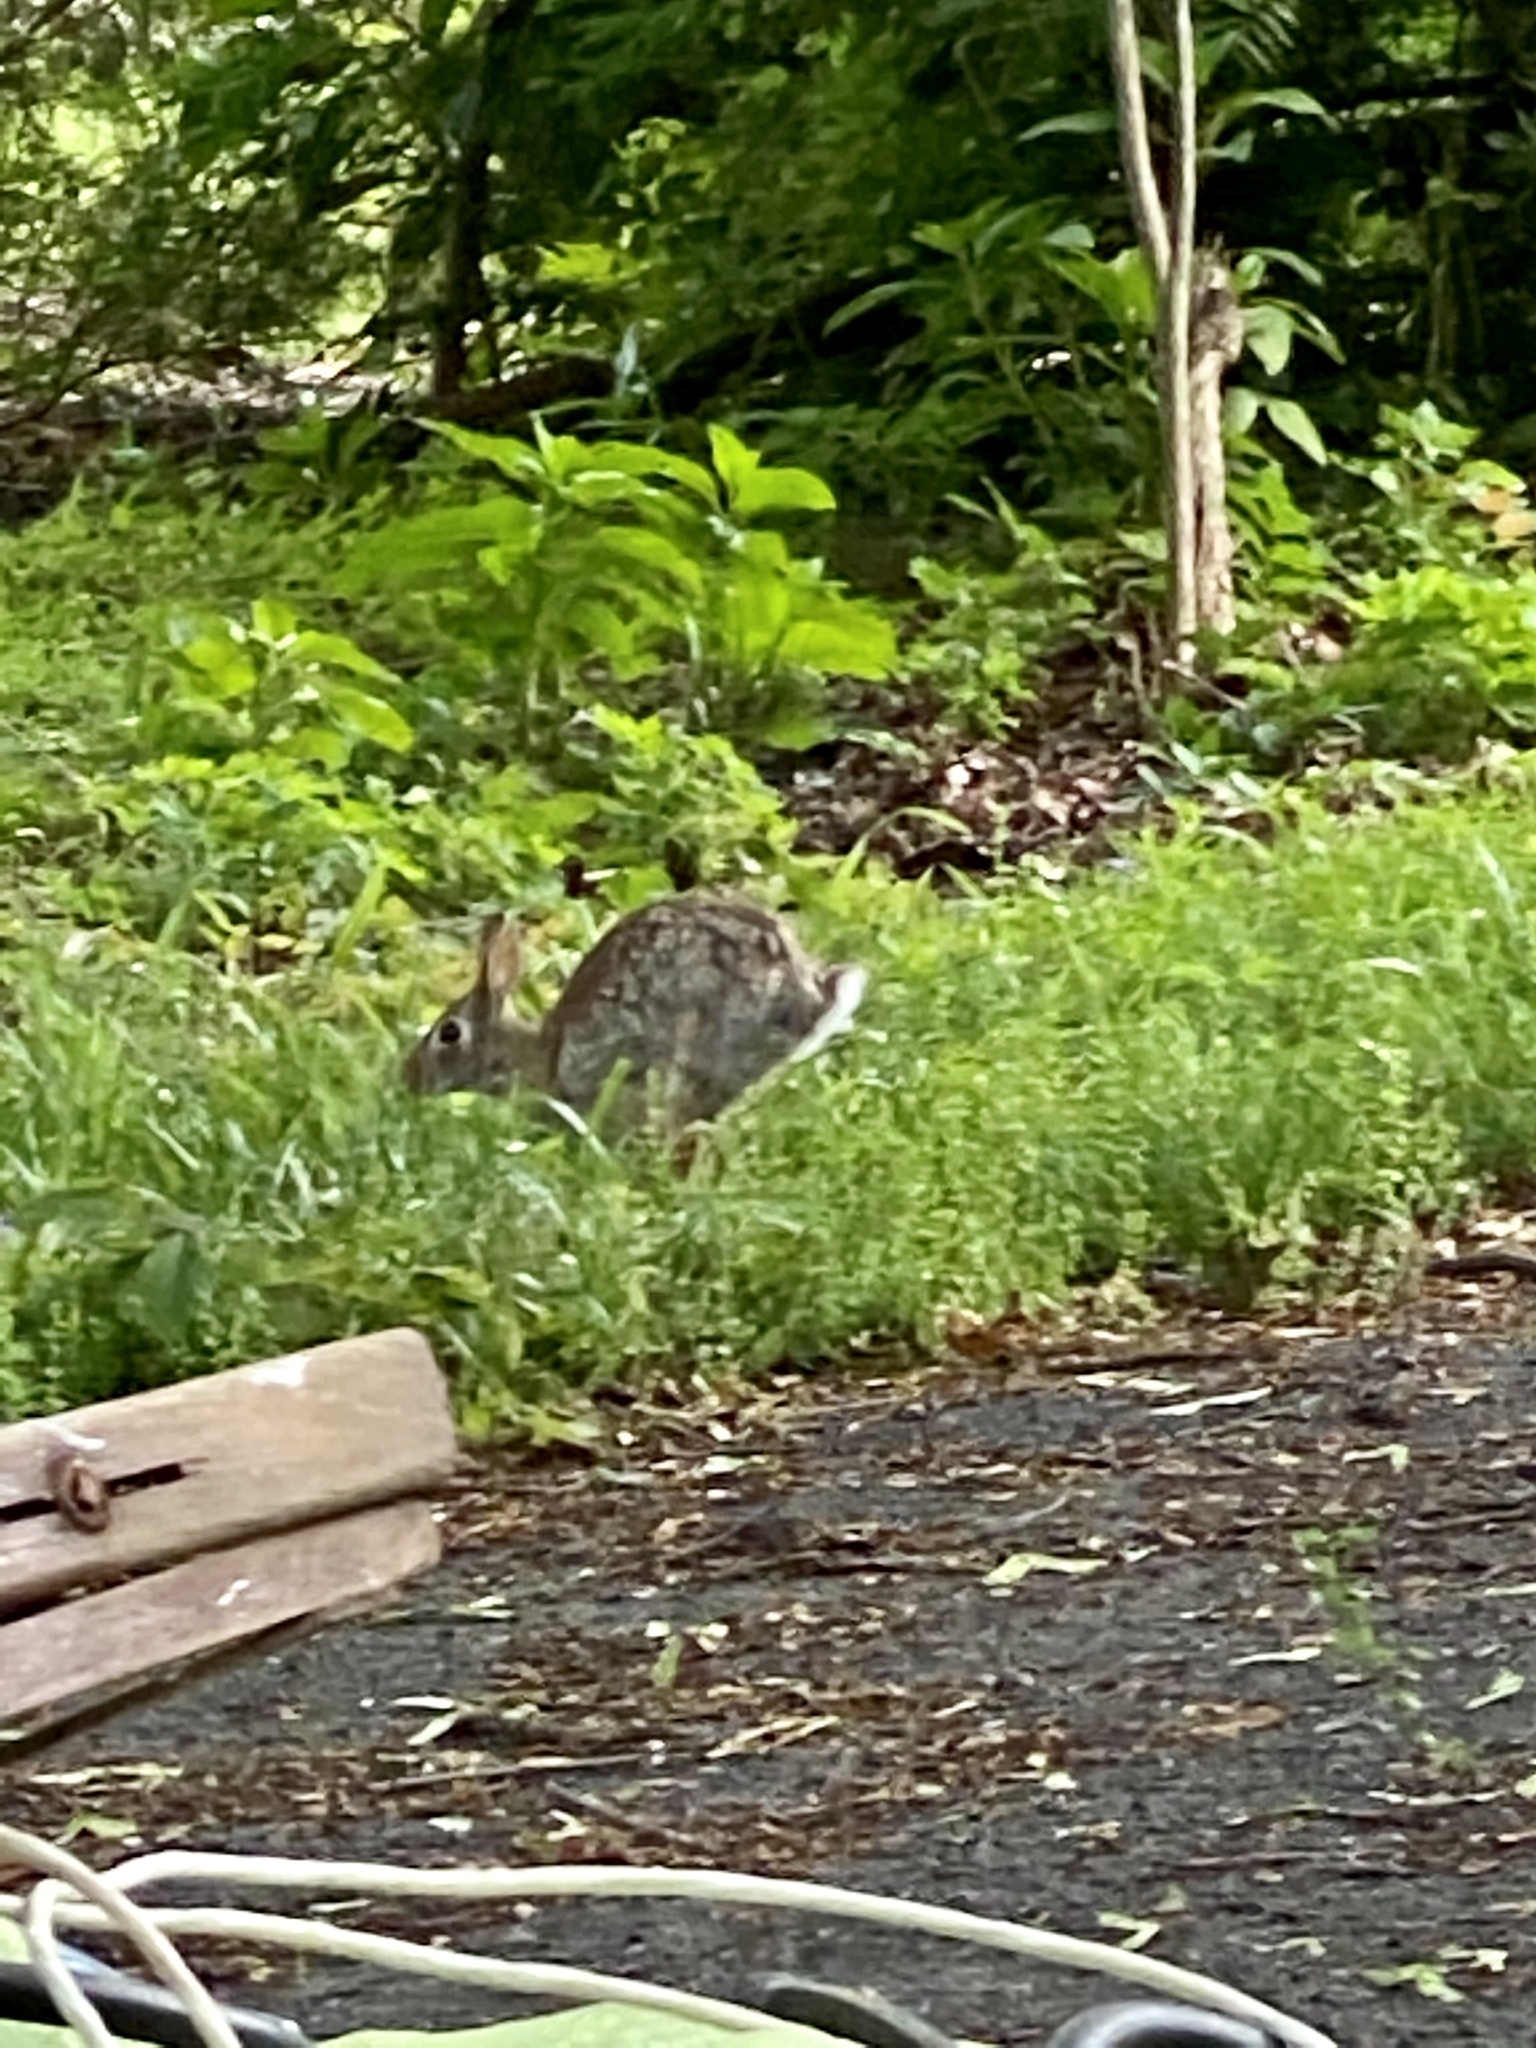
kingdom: Animalia
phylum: Chordata
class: Mammalia
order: Lagomorpha
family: Leporidae
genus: Sylvilagus
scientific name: Sylvilagus floridanus
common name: Eastern cottontail
